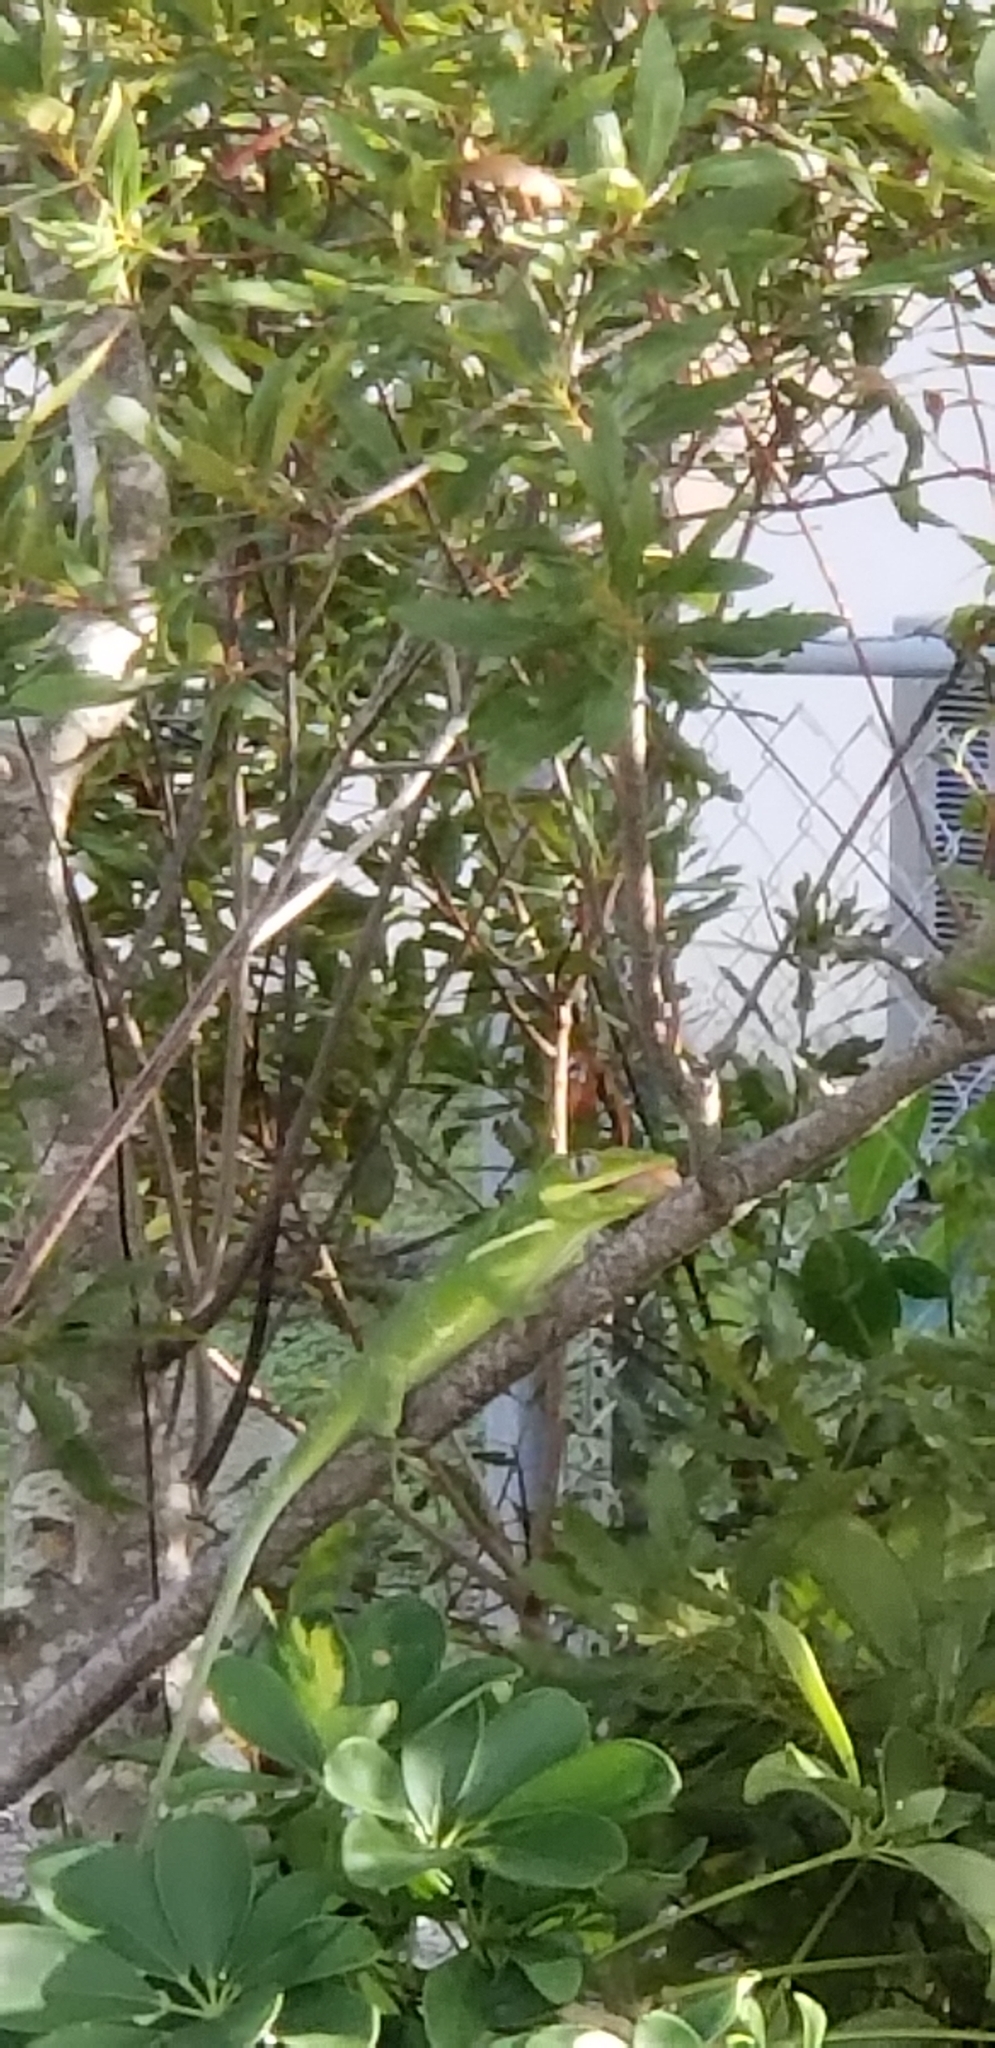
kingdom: Animalia
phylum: Chordata
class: Squamata
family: Dactyloidae
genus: Anolis
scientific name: Anolis equestris
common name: Knight anole
